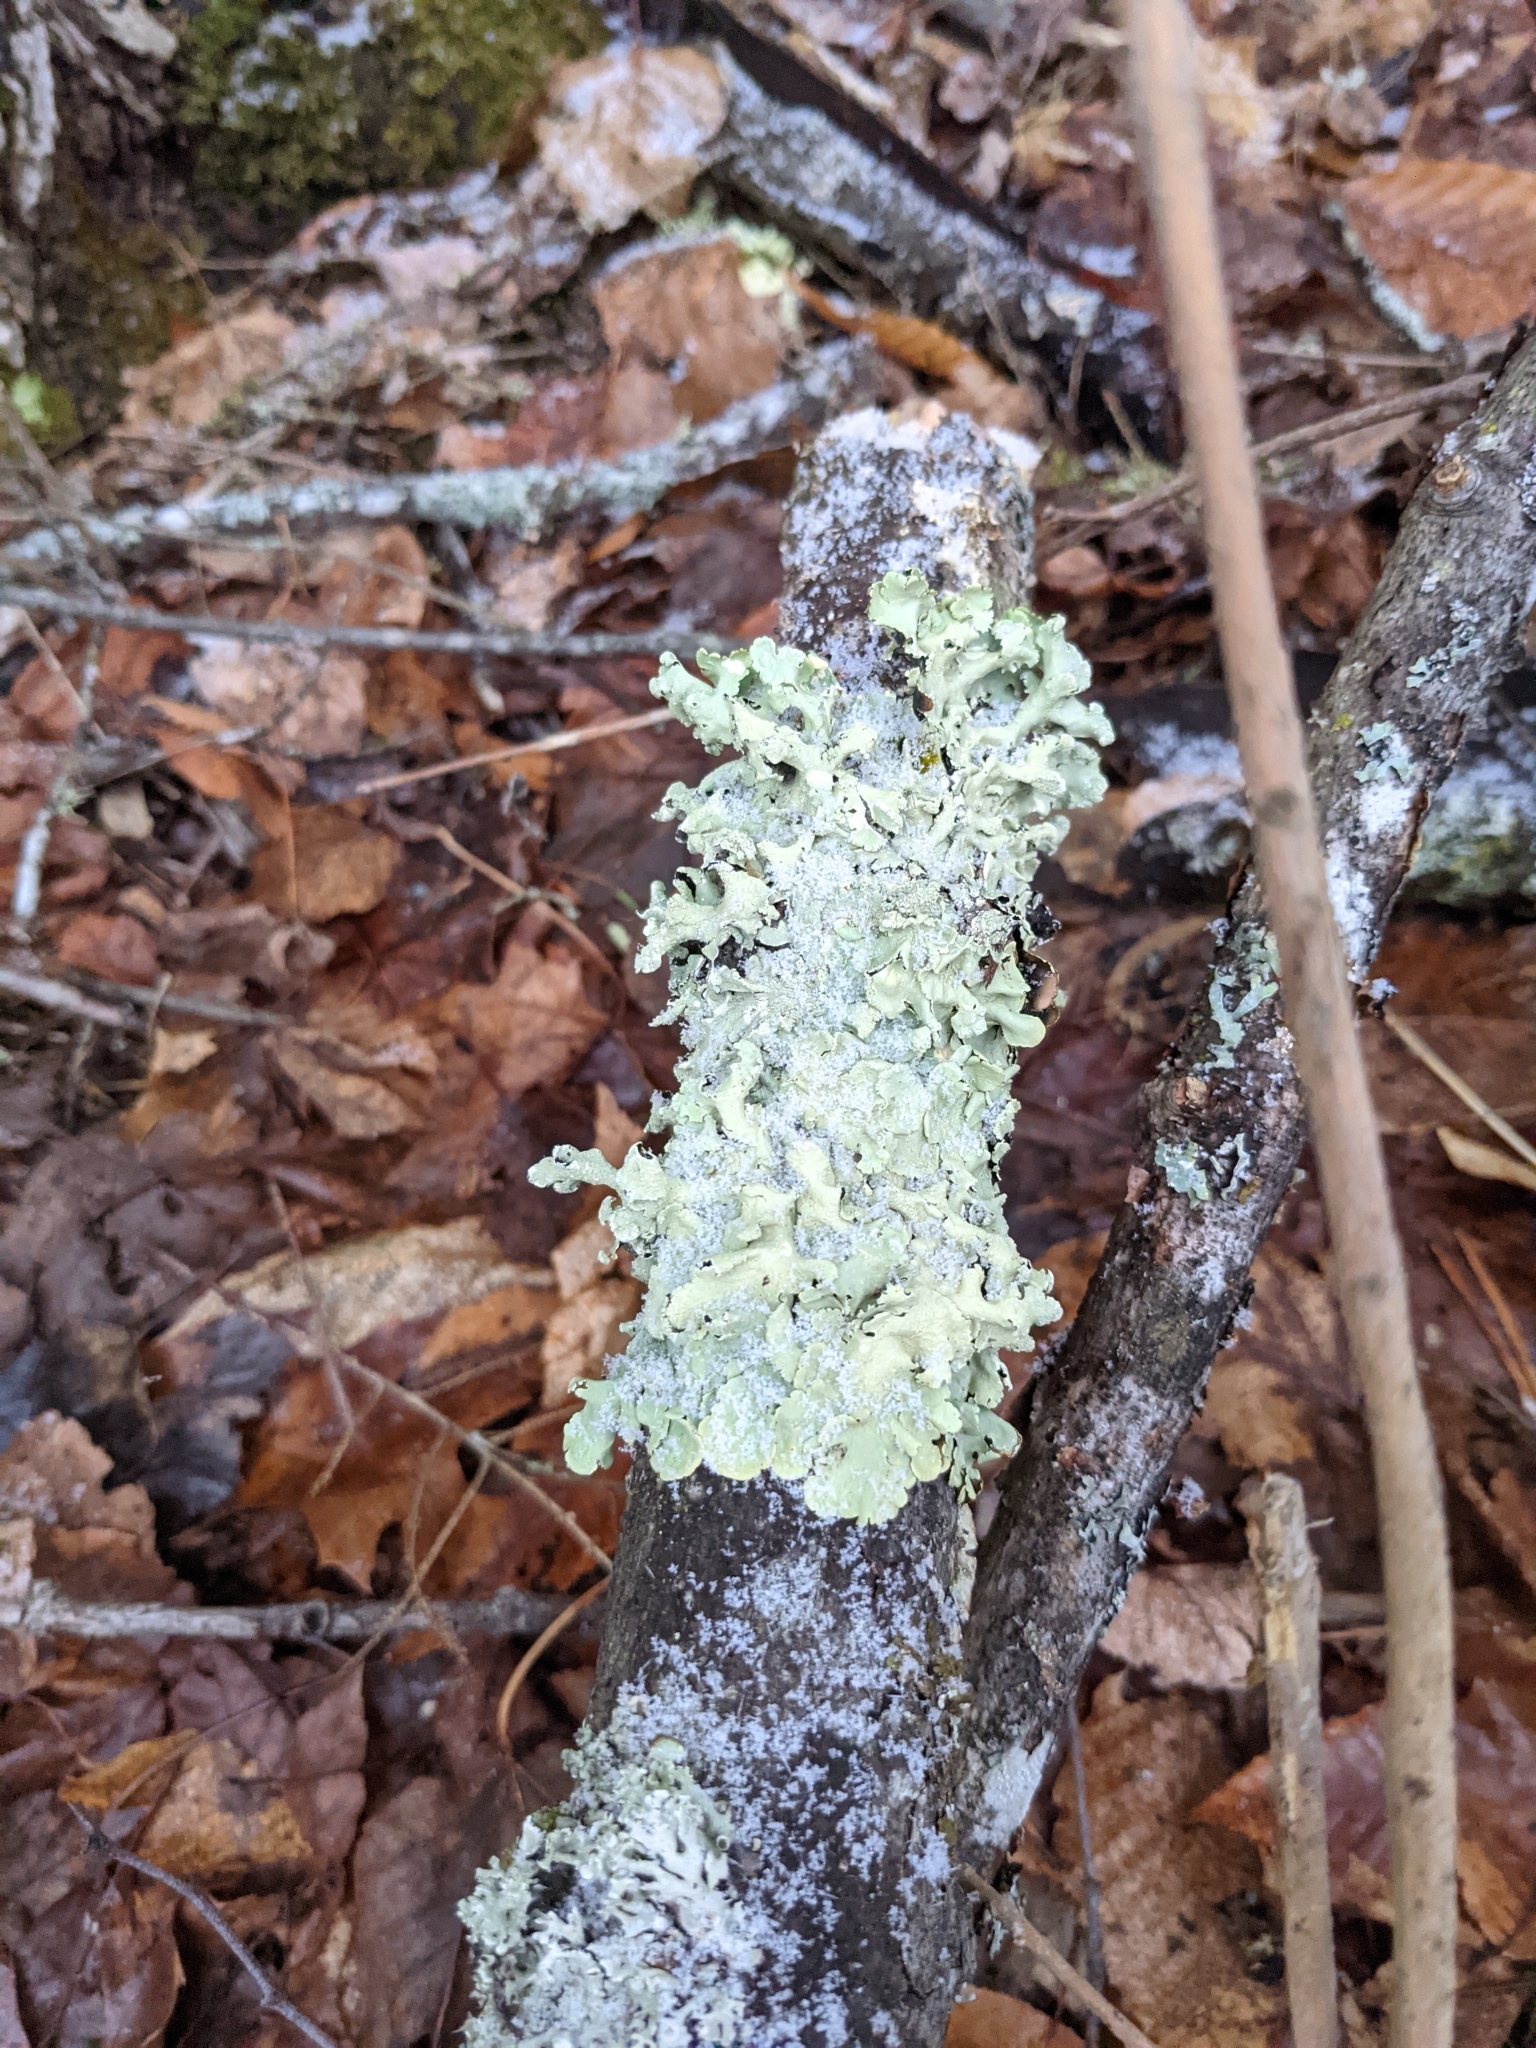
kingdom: Fungi
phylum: Ascomycota
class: Lecanoromycetes
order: Lecanorales
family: Parmeliaceae
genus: Flavoparmelia
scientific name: Flavoparmelia caperata
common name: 40-mile per hour lichen
